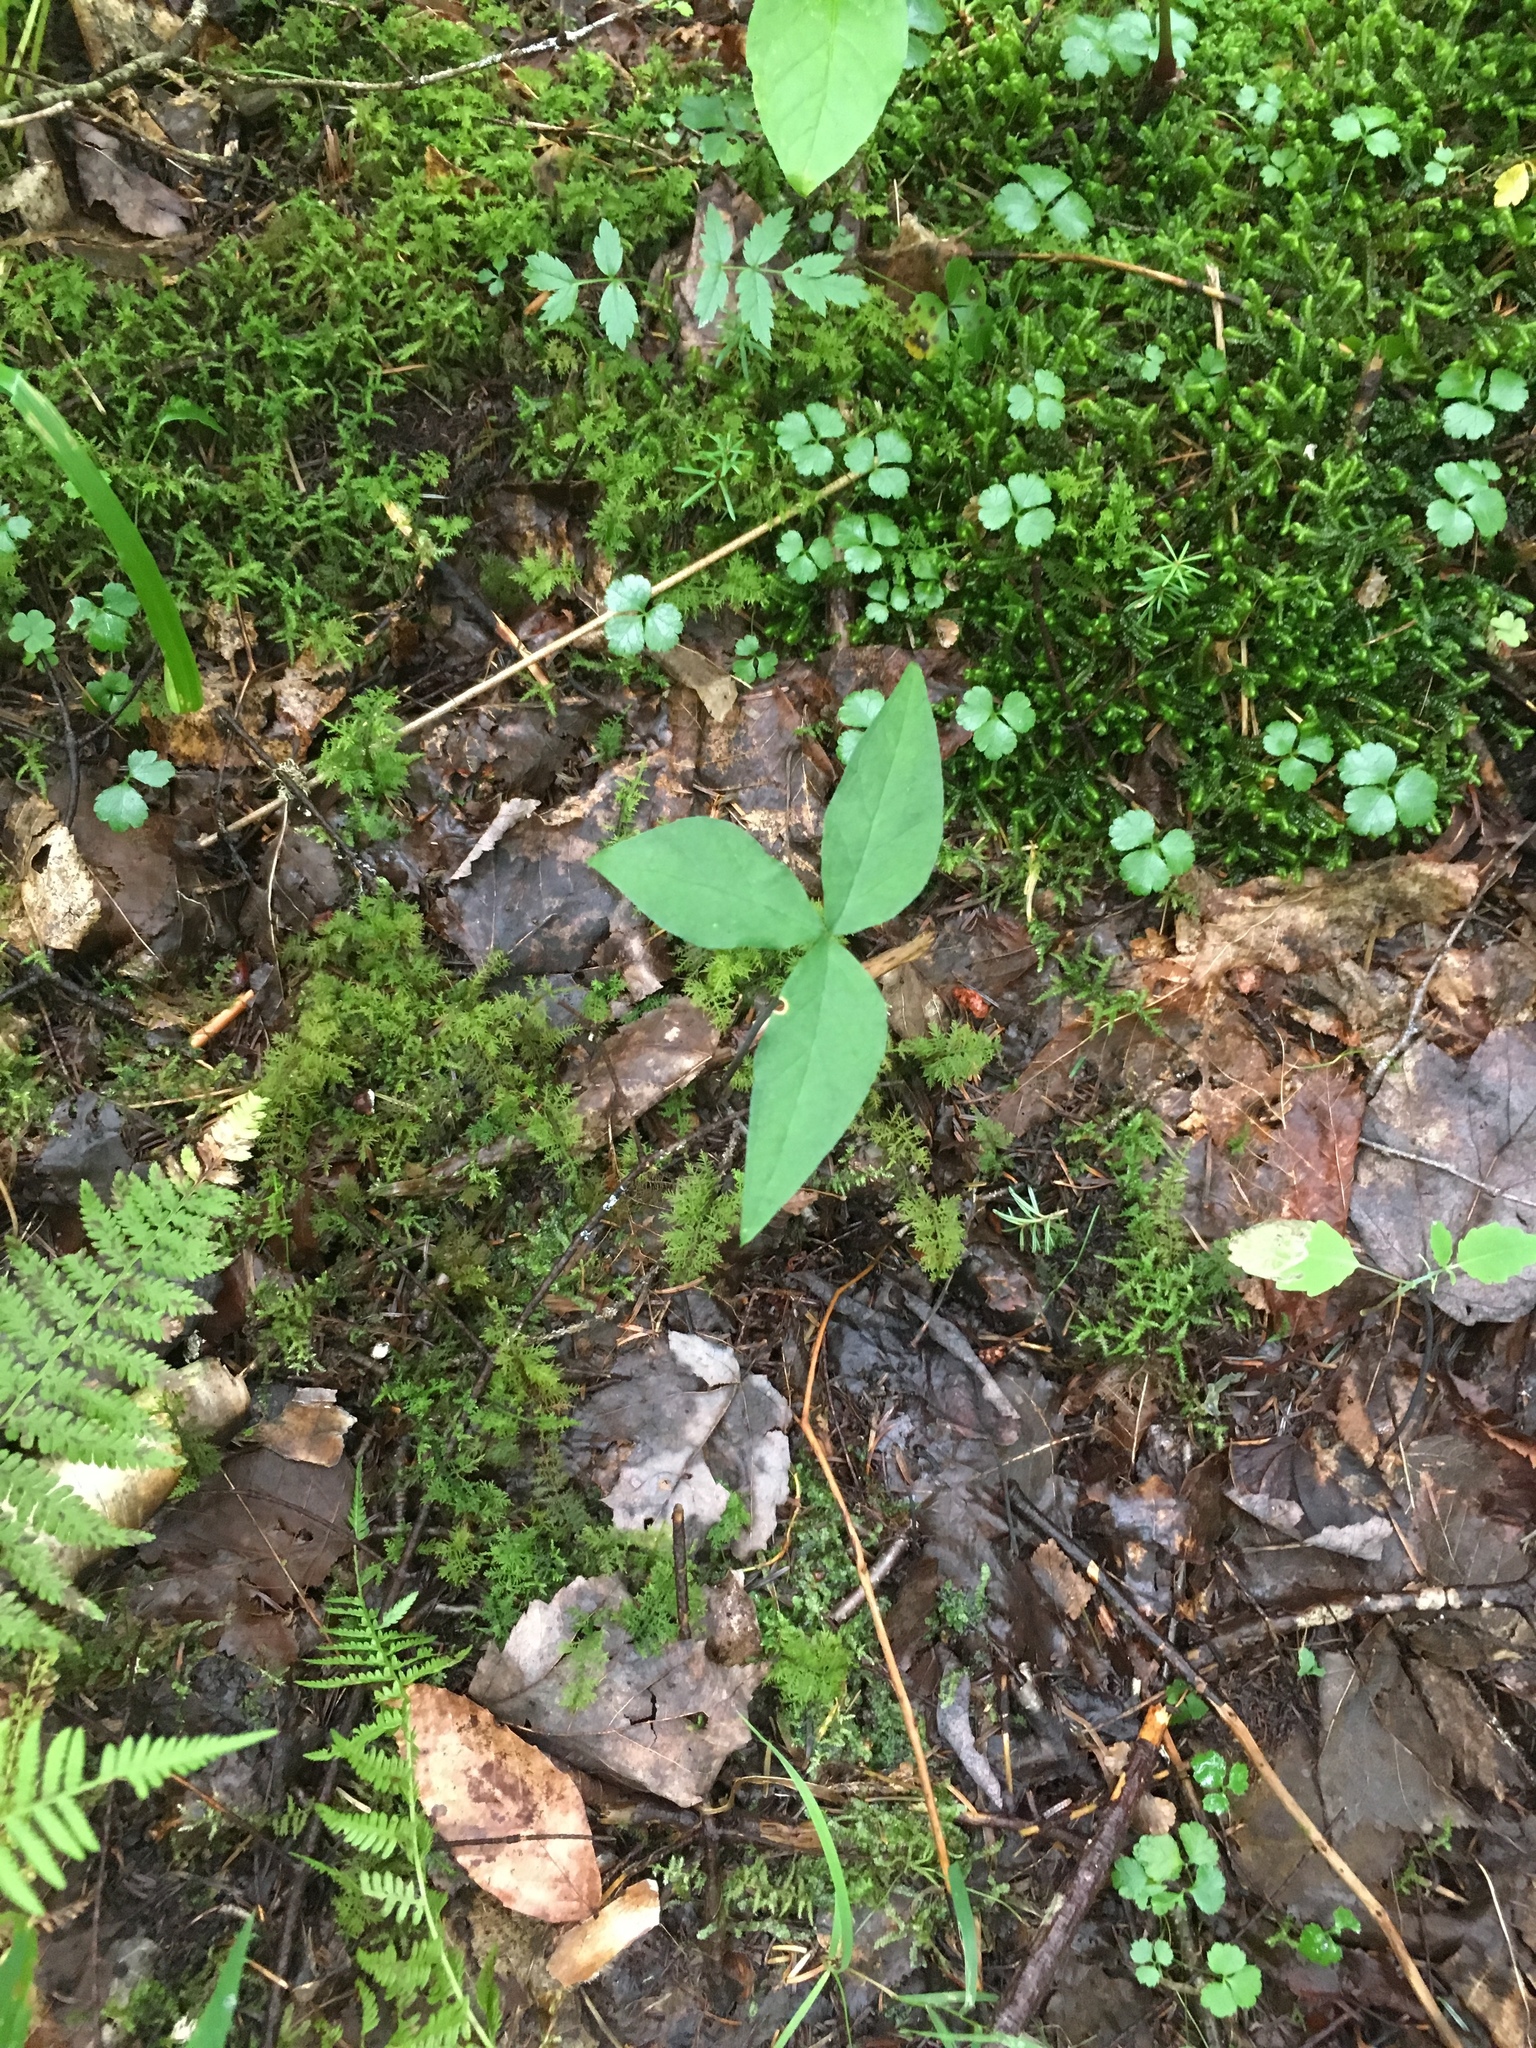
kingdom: Plantae
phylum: Tracheophyta
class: Liliopsida
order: Alismatales
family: Araceae
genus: Arisaema
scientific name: Arisaema triphyllum
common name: Jack-in-the-pulpit
